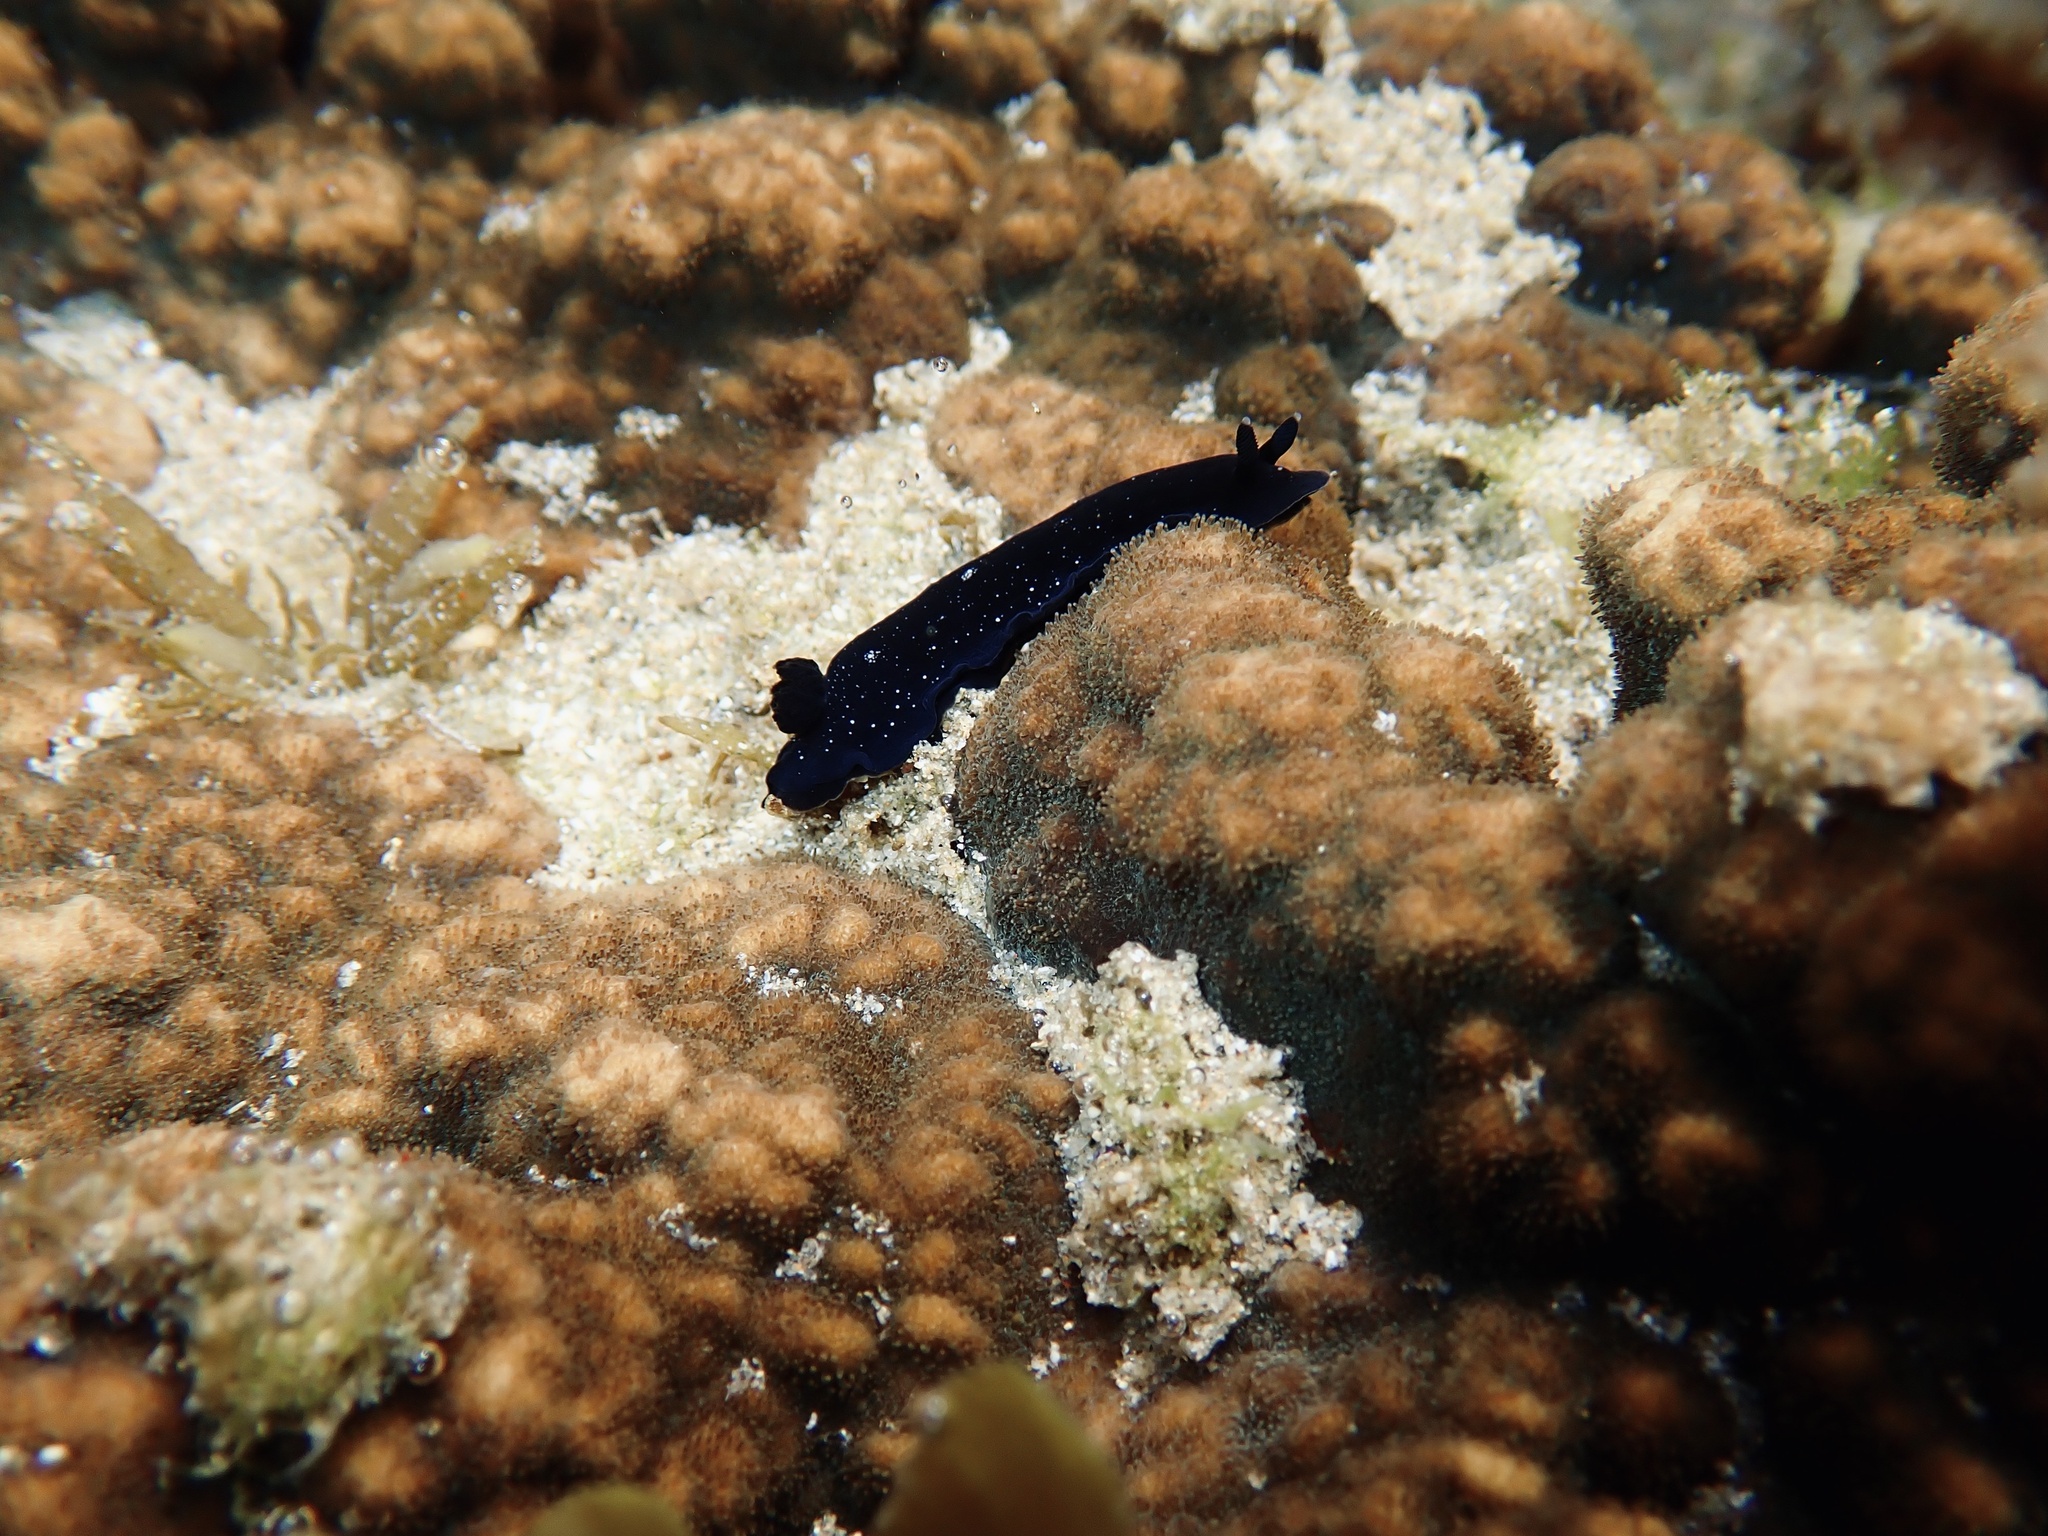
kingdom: Animalia
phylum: Mollusca
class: Gastropoda
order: Nudibranchia
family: Dendrodorididae
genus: Dendrodoris
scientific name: Dendrodoris nigra
